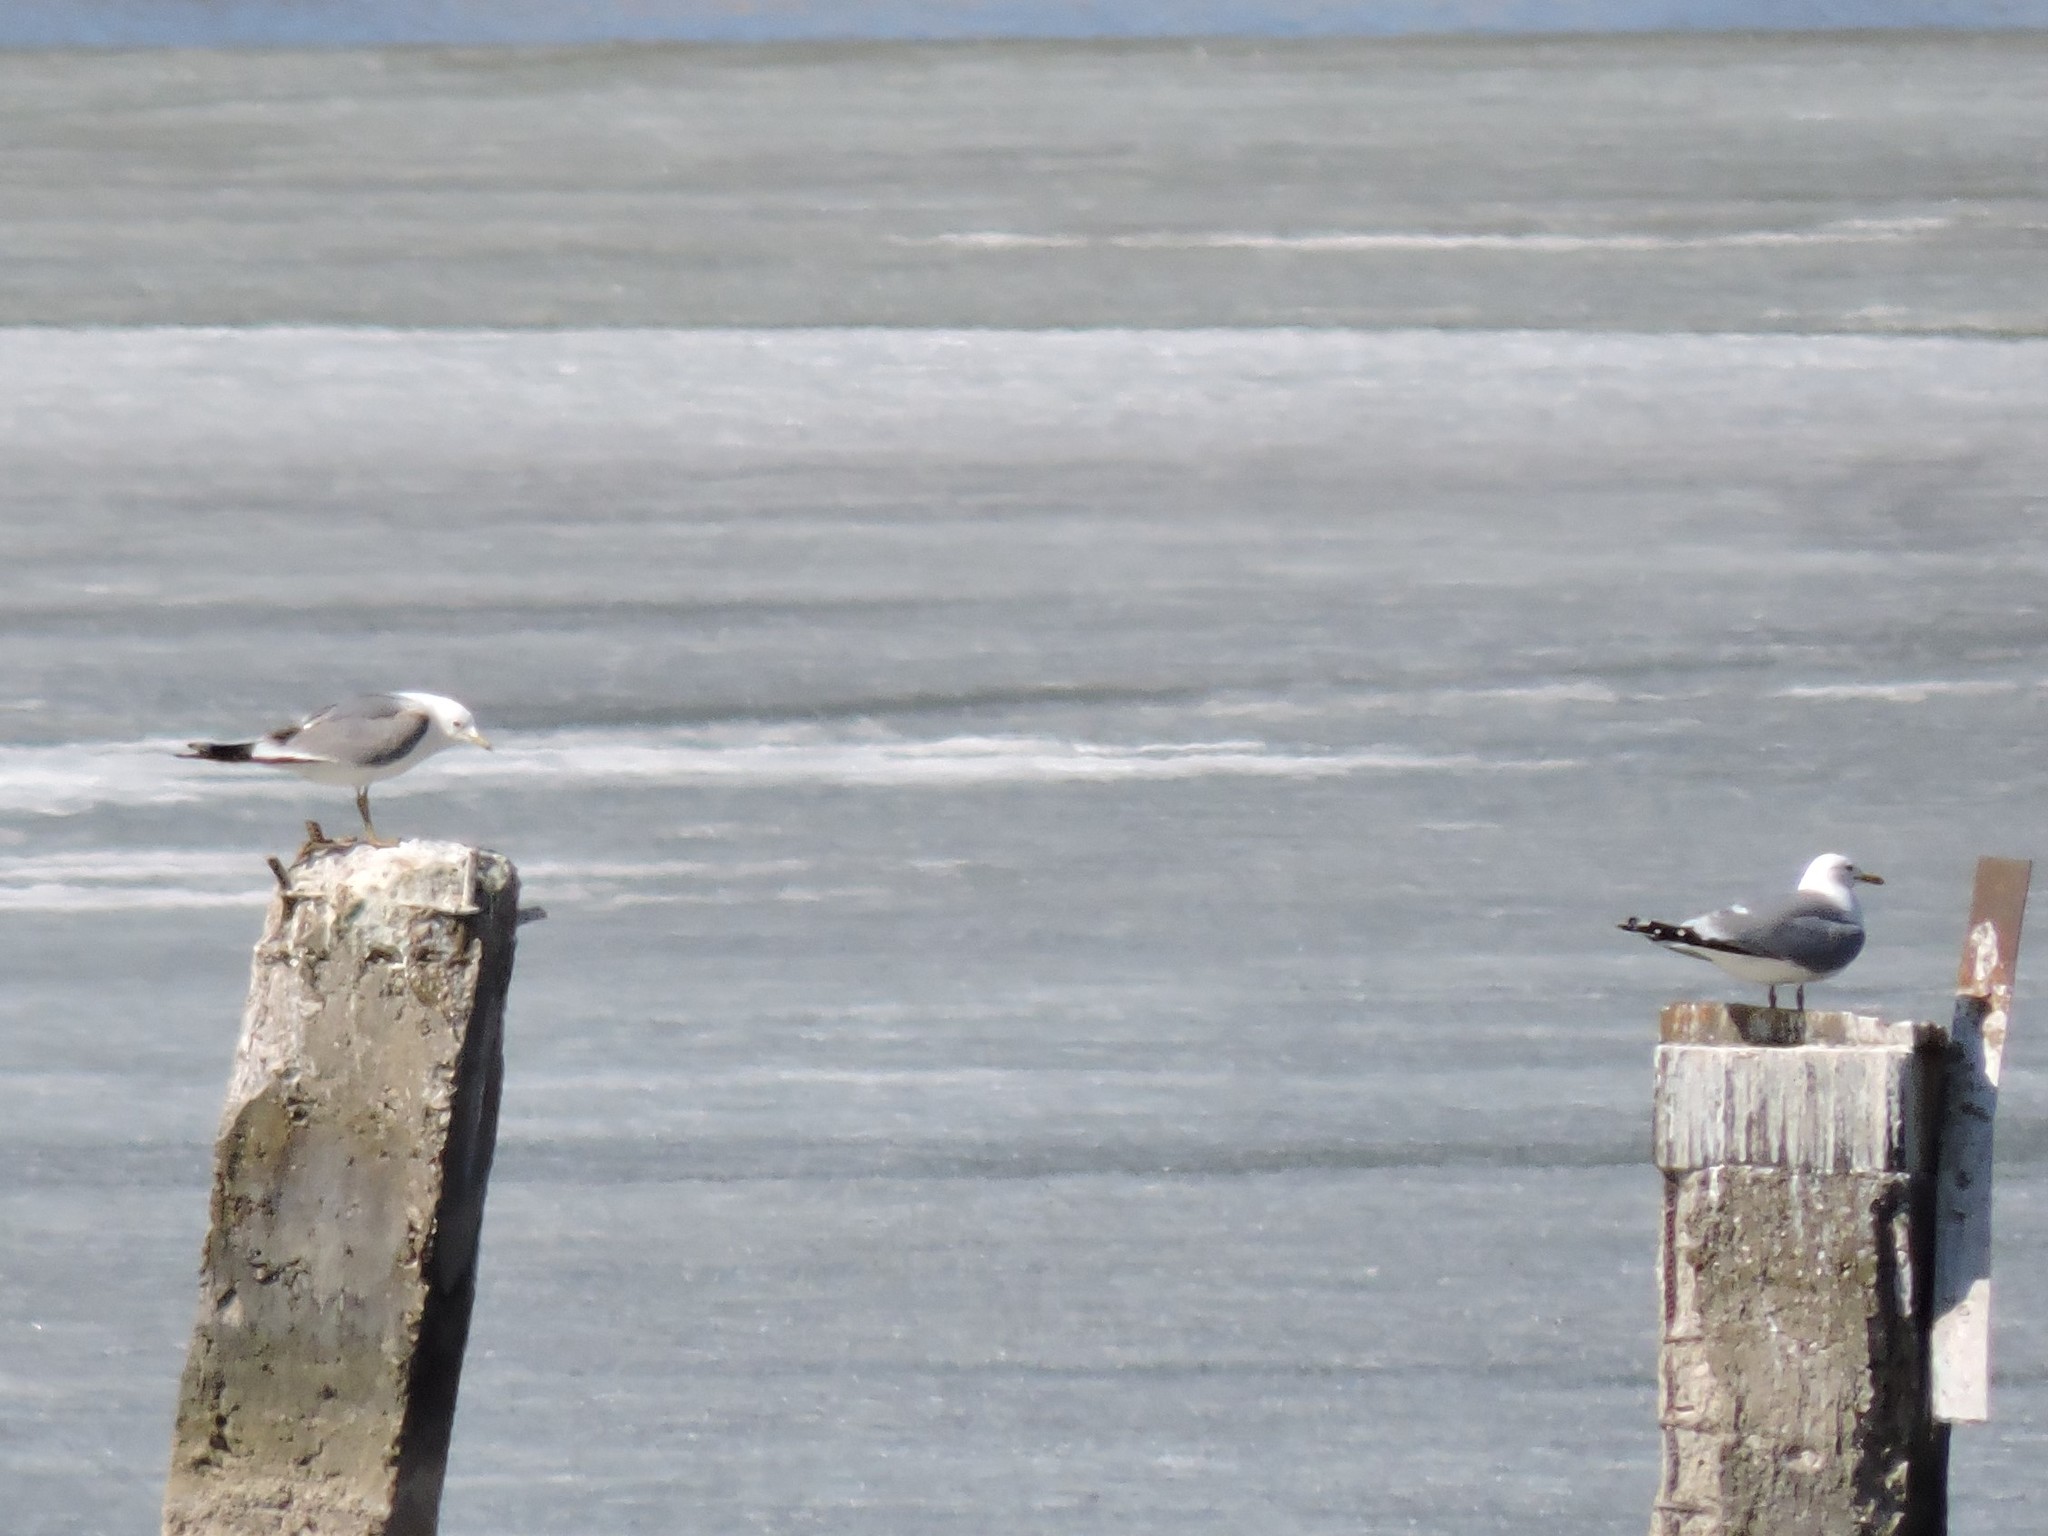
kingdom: Animalia
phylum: Chordata
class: Aves
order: Charadriiformes
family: Laridae
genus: Larus
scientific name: Larus canus
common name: Mew gull
